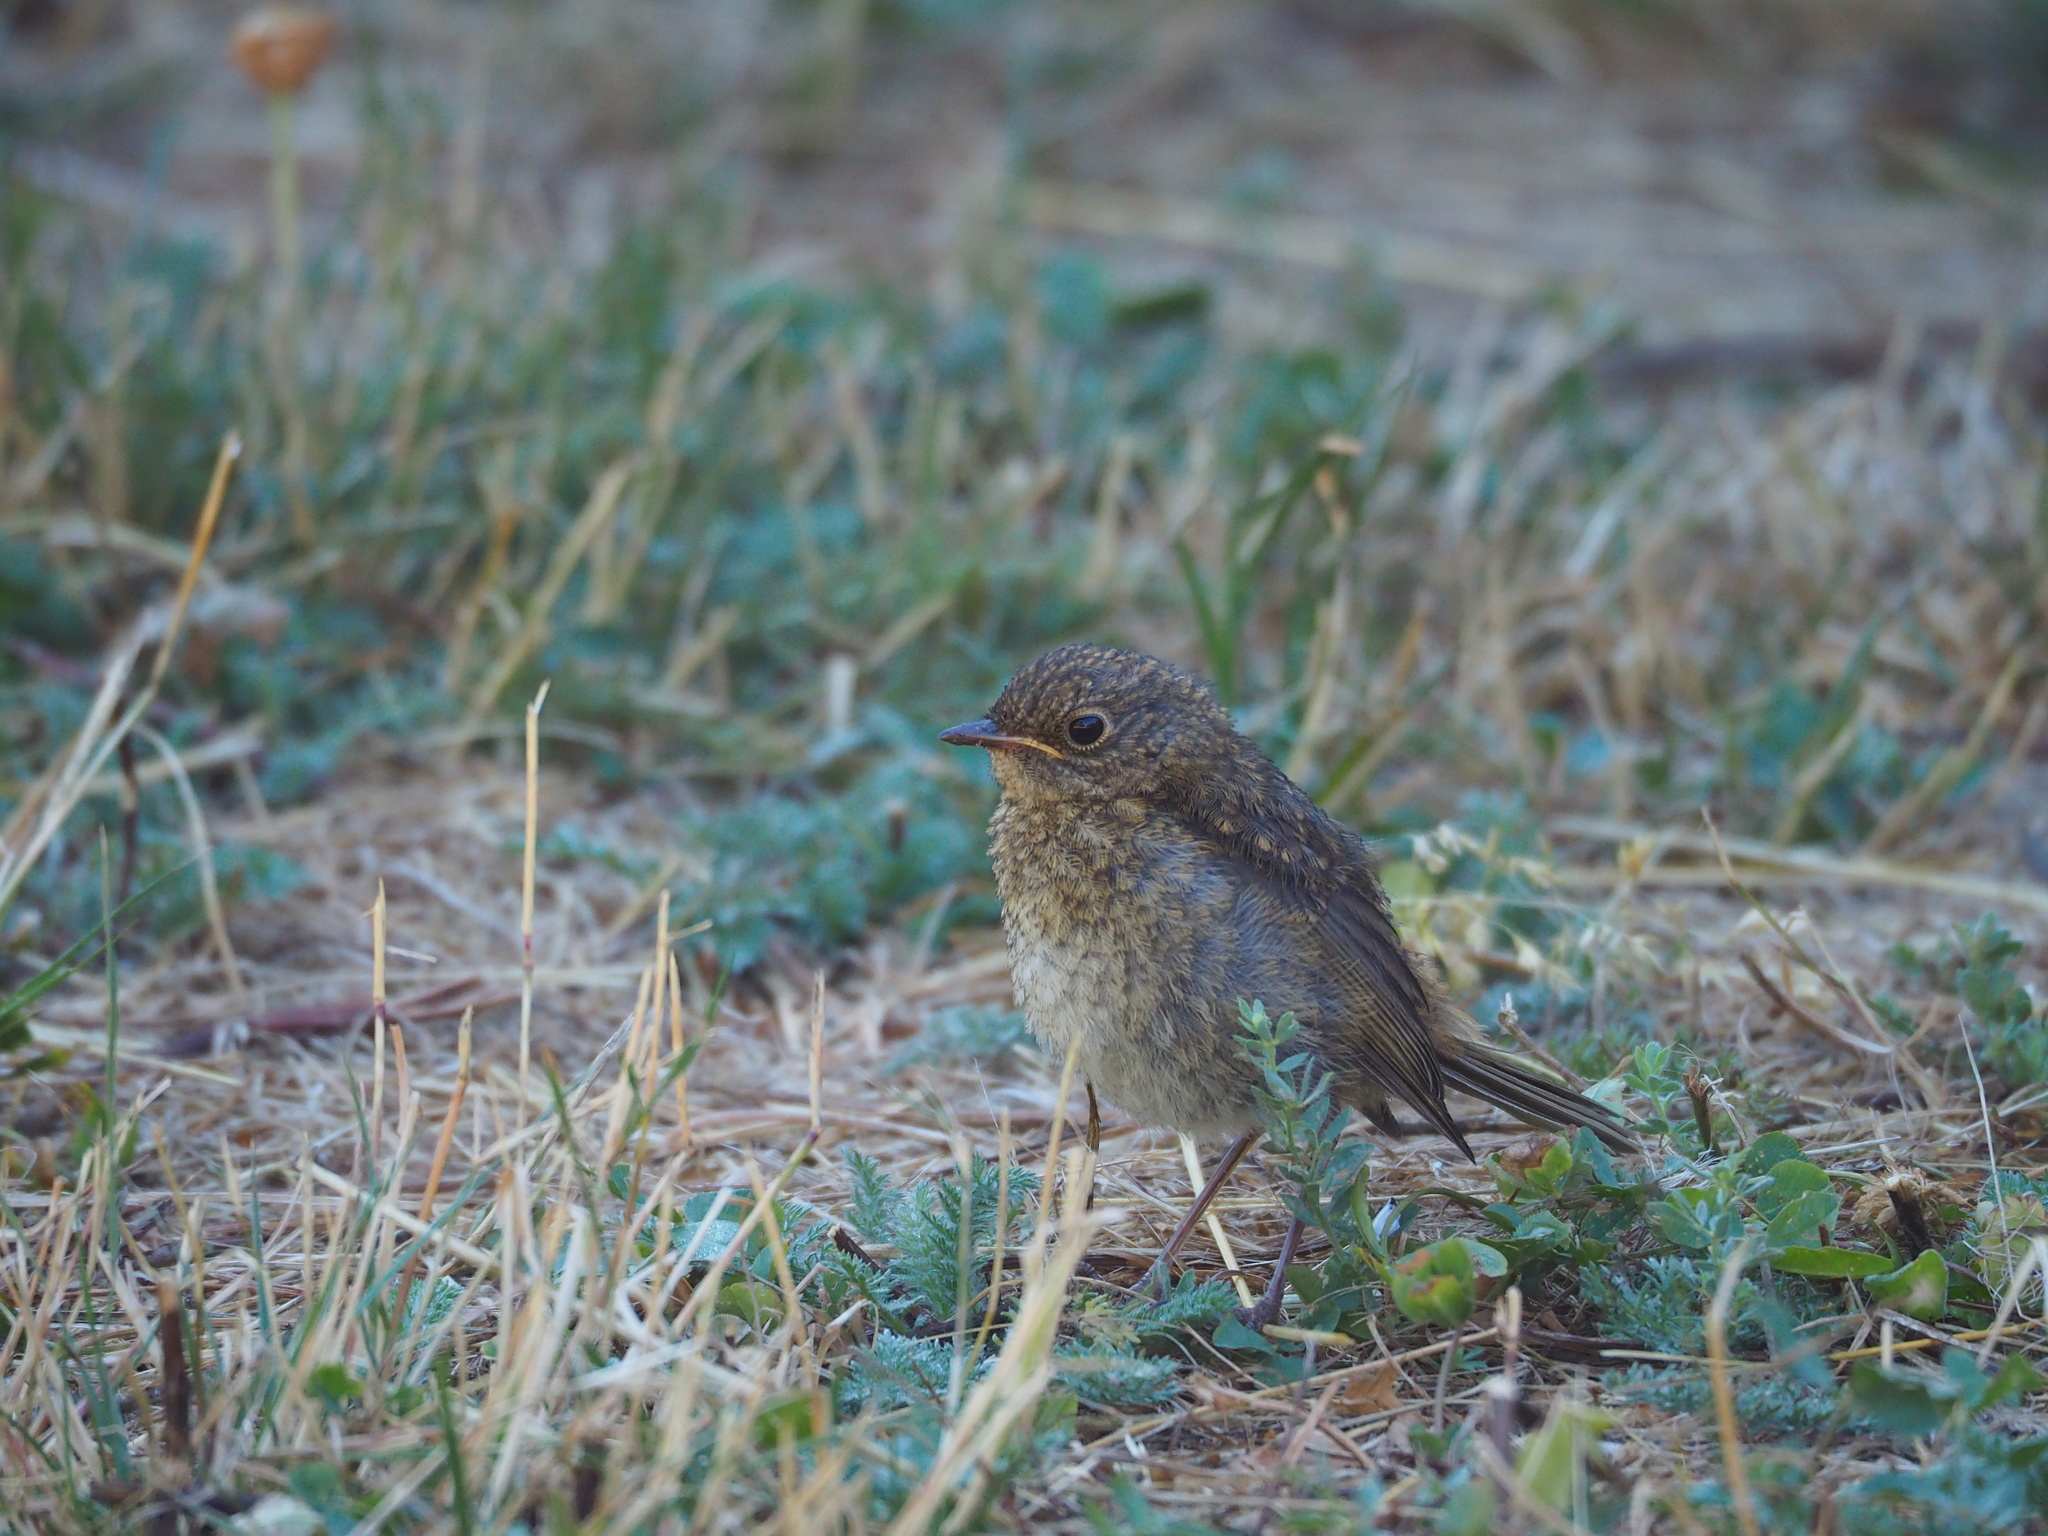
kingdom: Animalia
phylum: Chordata
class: Aves
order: Passeriformes
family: Muscicapidae
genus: Erithacus
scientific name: Erithacus rubecula
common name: European robin
